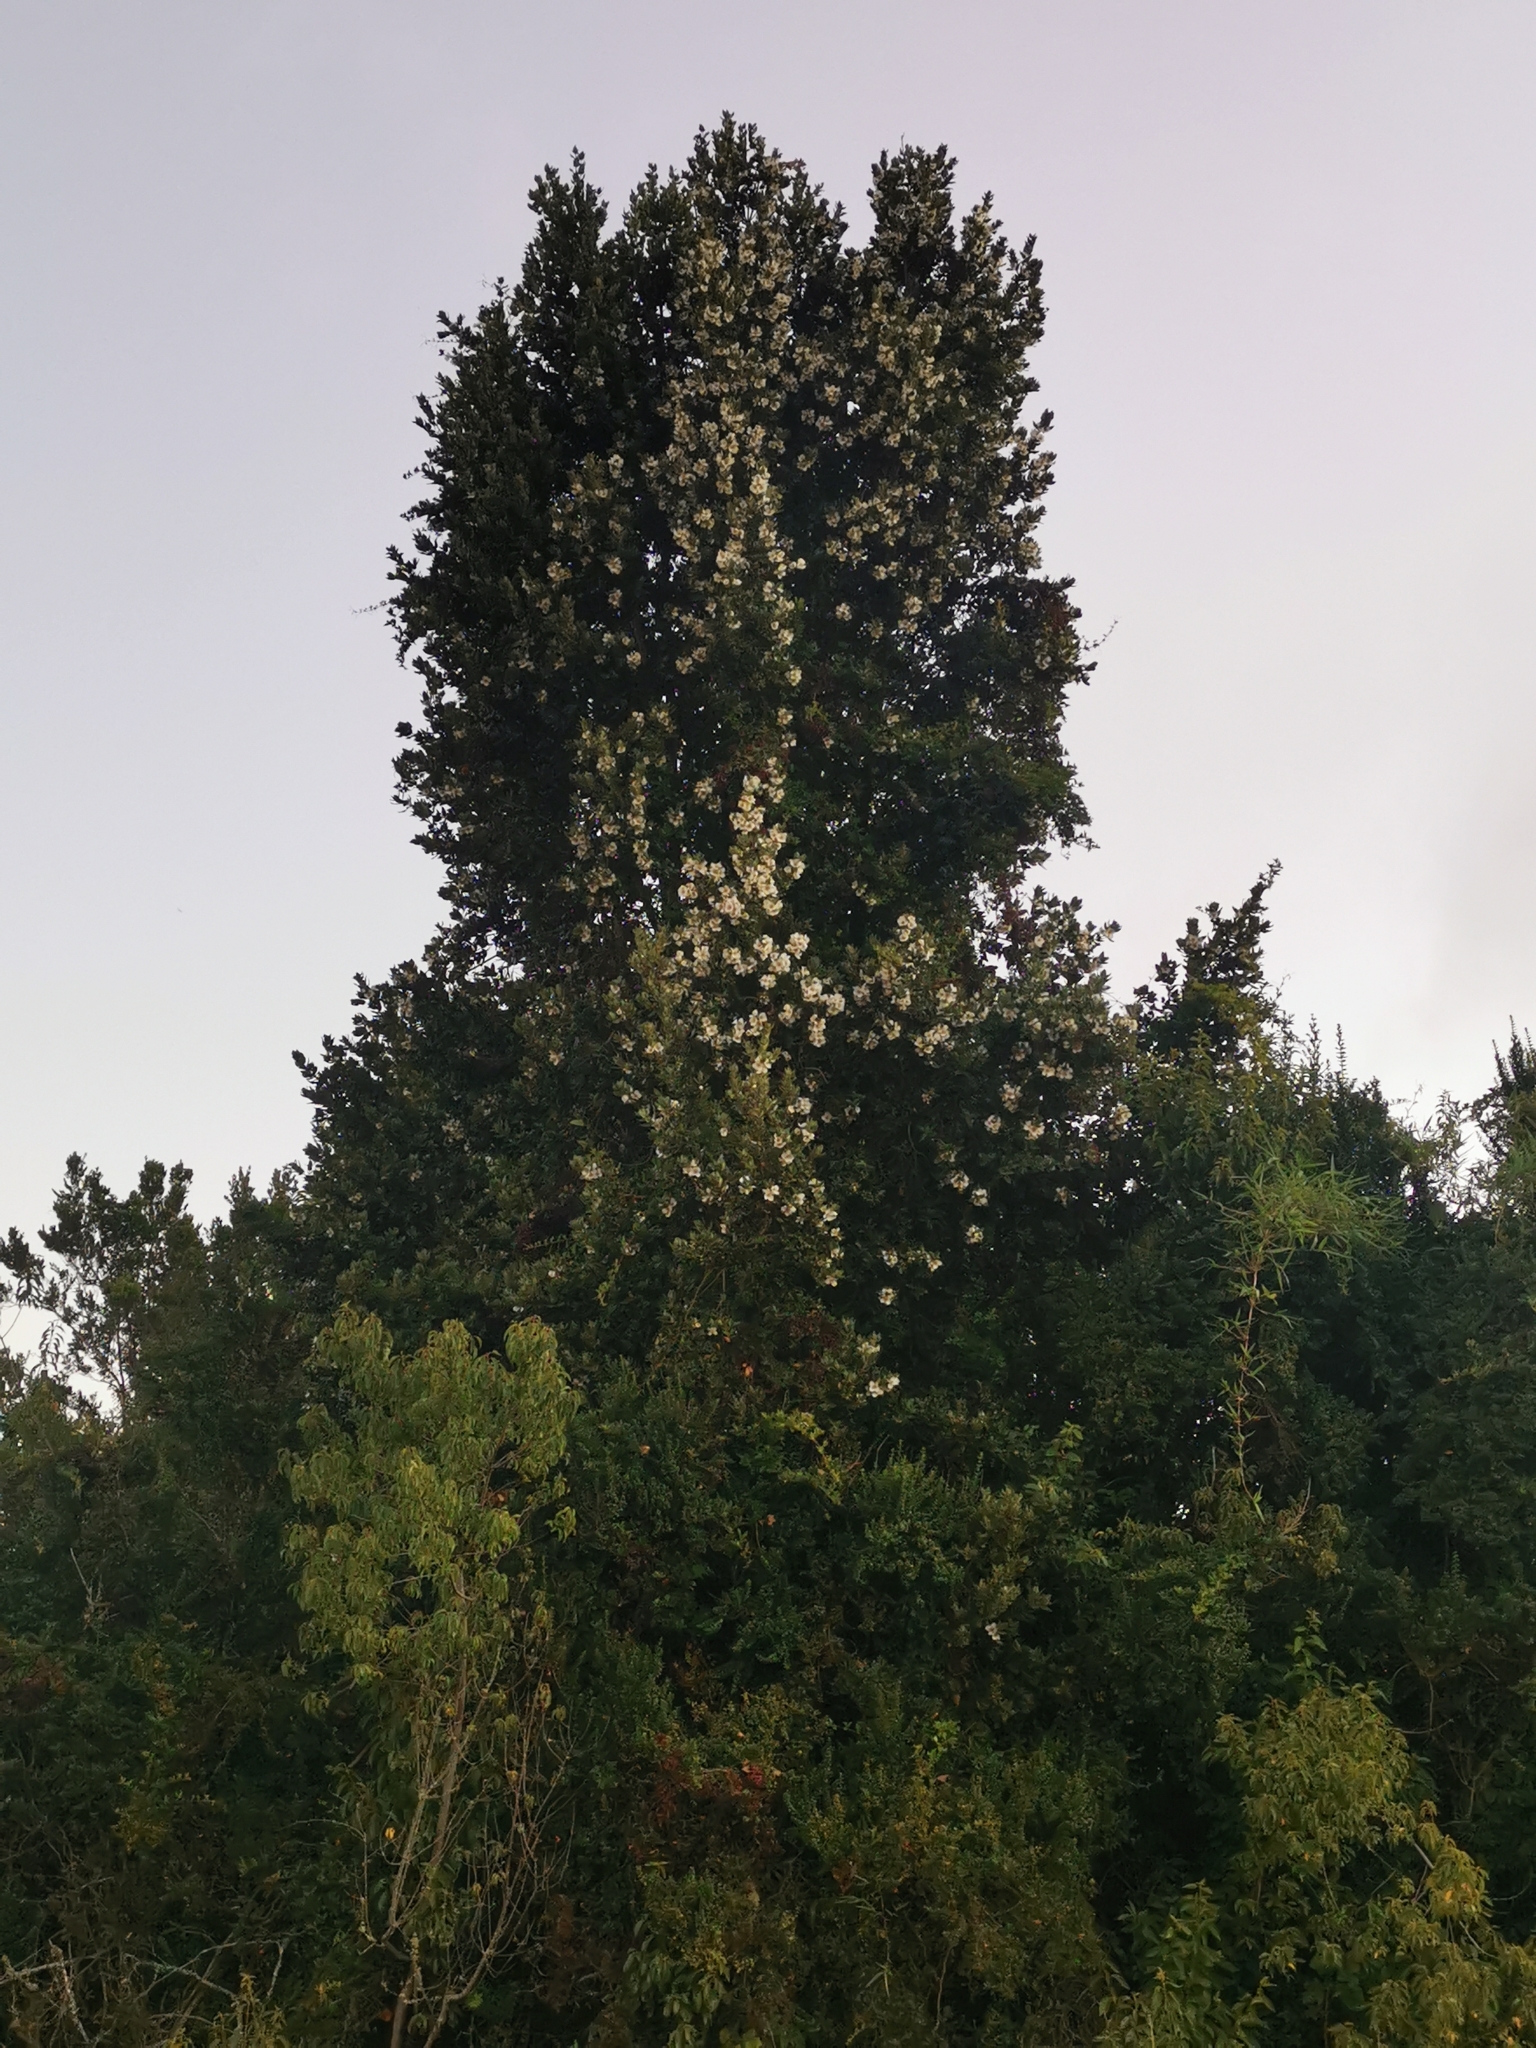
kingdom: Plantae
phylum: Tracheophyta
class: Magnoliopsida
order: Oxalidales
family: Cunoniaceae
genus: Eucryphia
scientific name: Eucryphia cordifolia
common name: Ulmo
